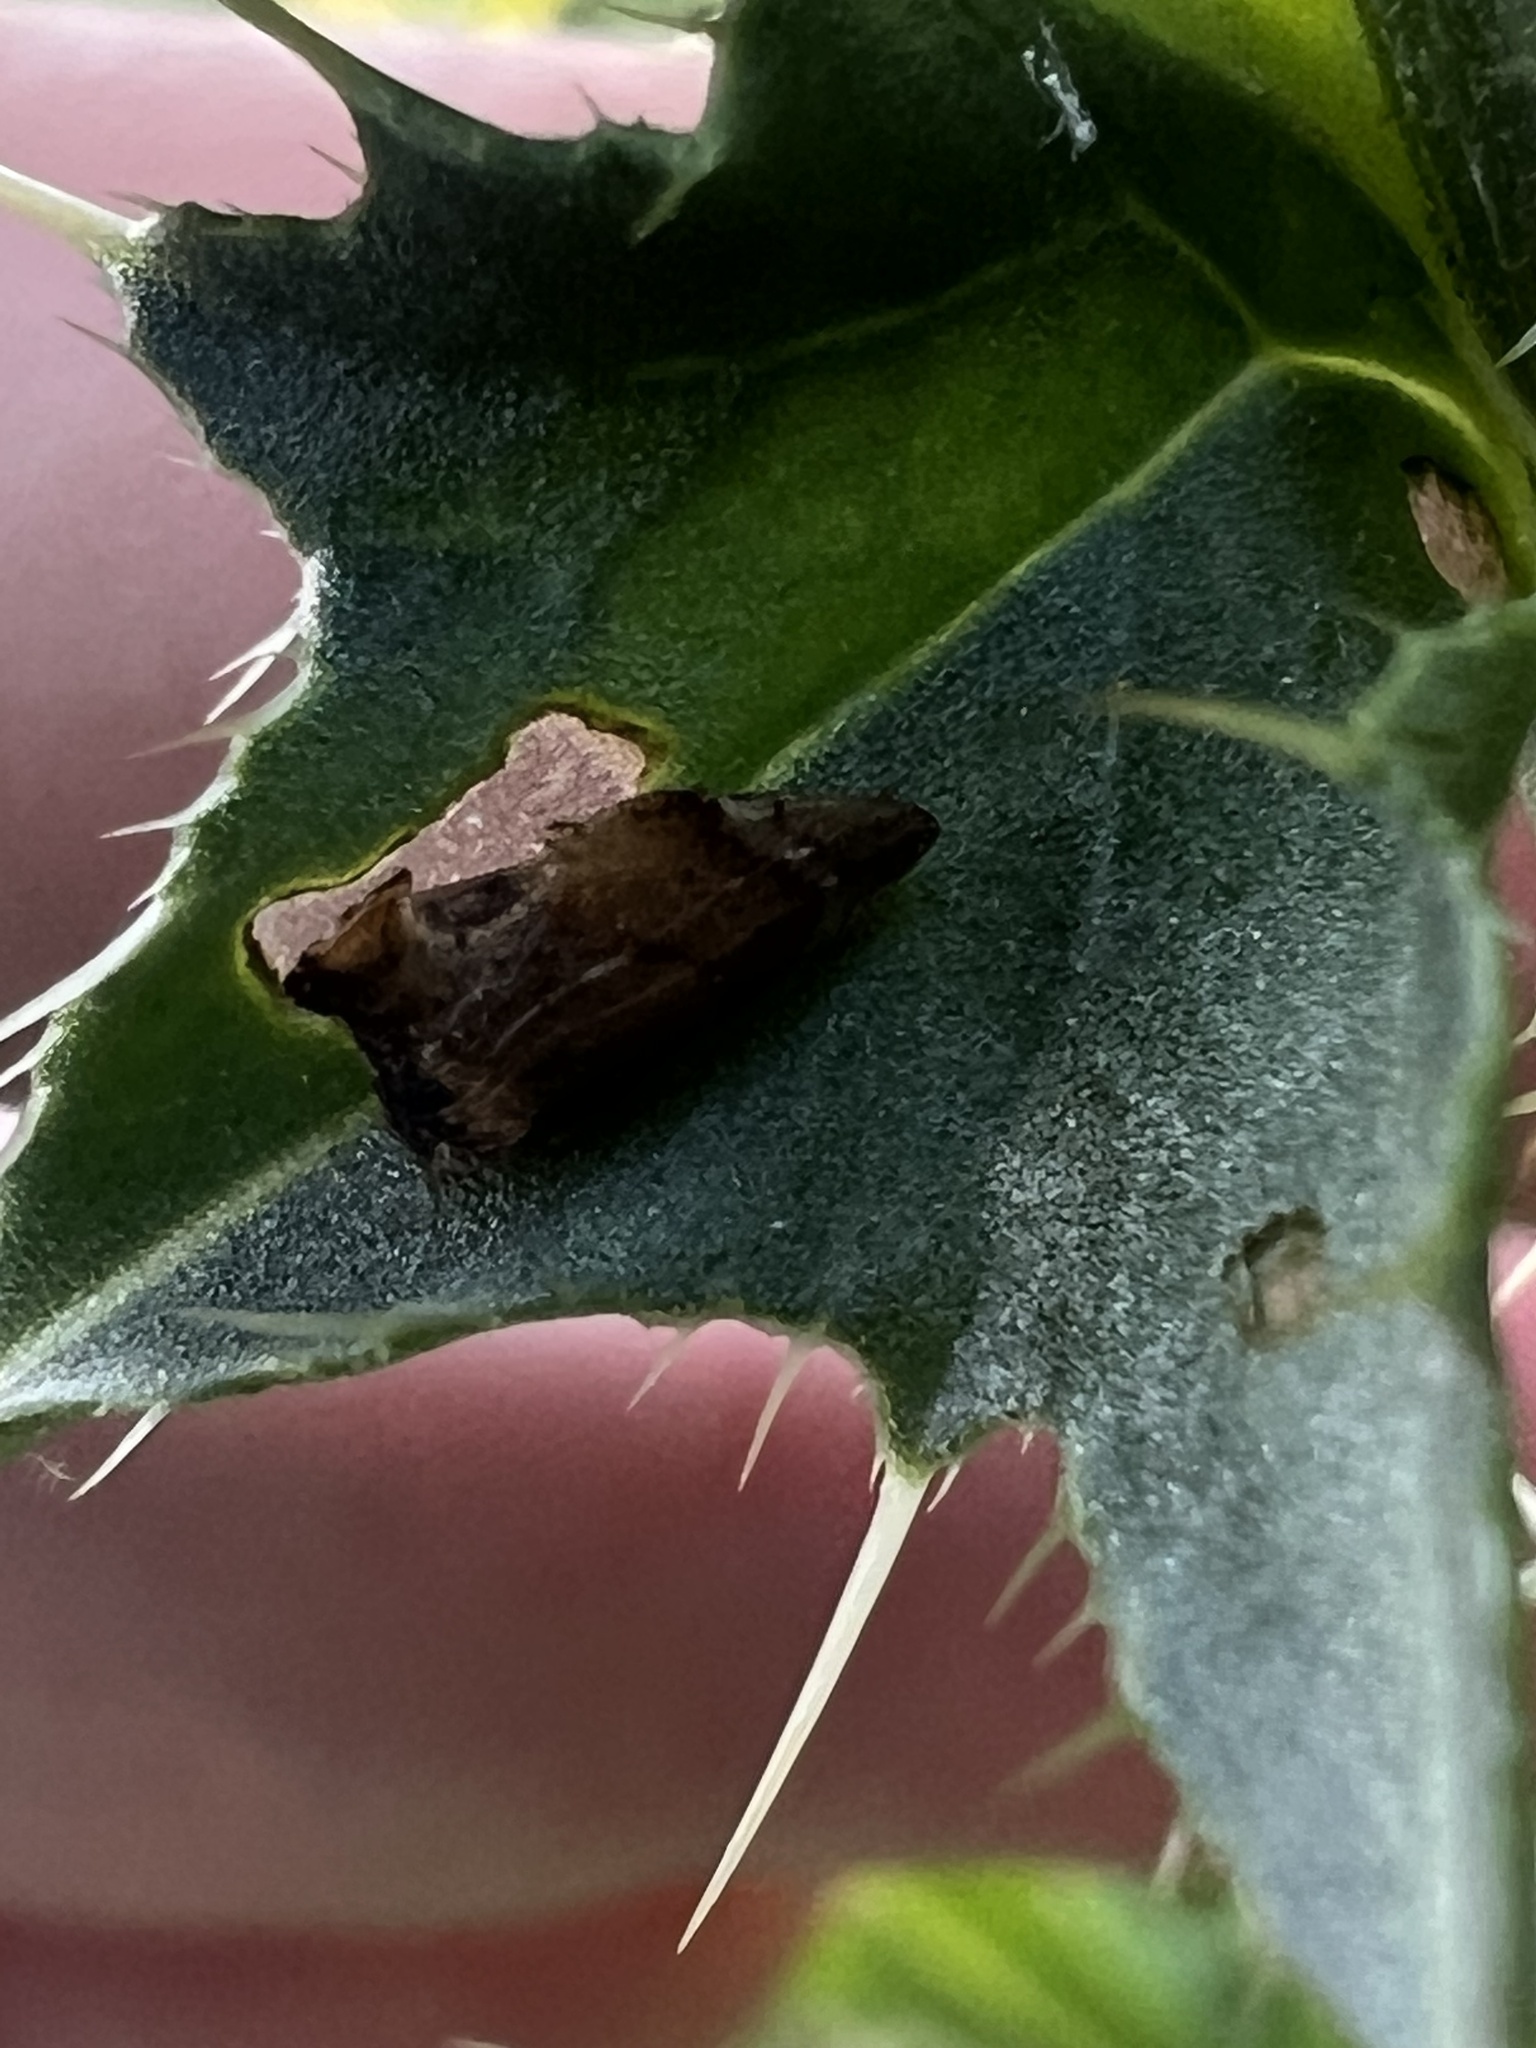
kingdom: Animalia
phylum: Arthropoda
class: Insecta
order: Hemiptera
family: Membracidae
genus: Entylia
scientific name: Entylia carinata
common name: Keeled treehopper
